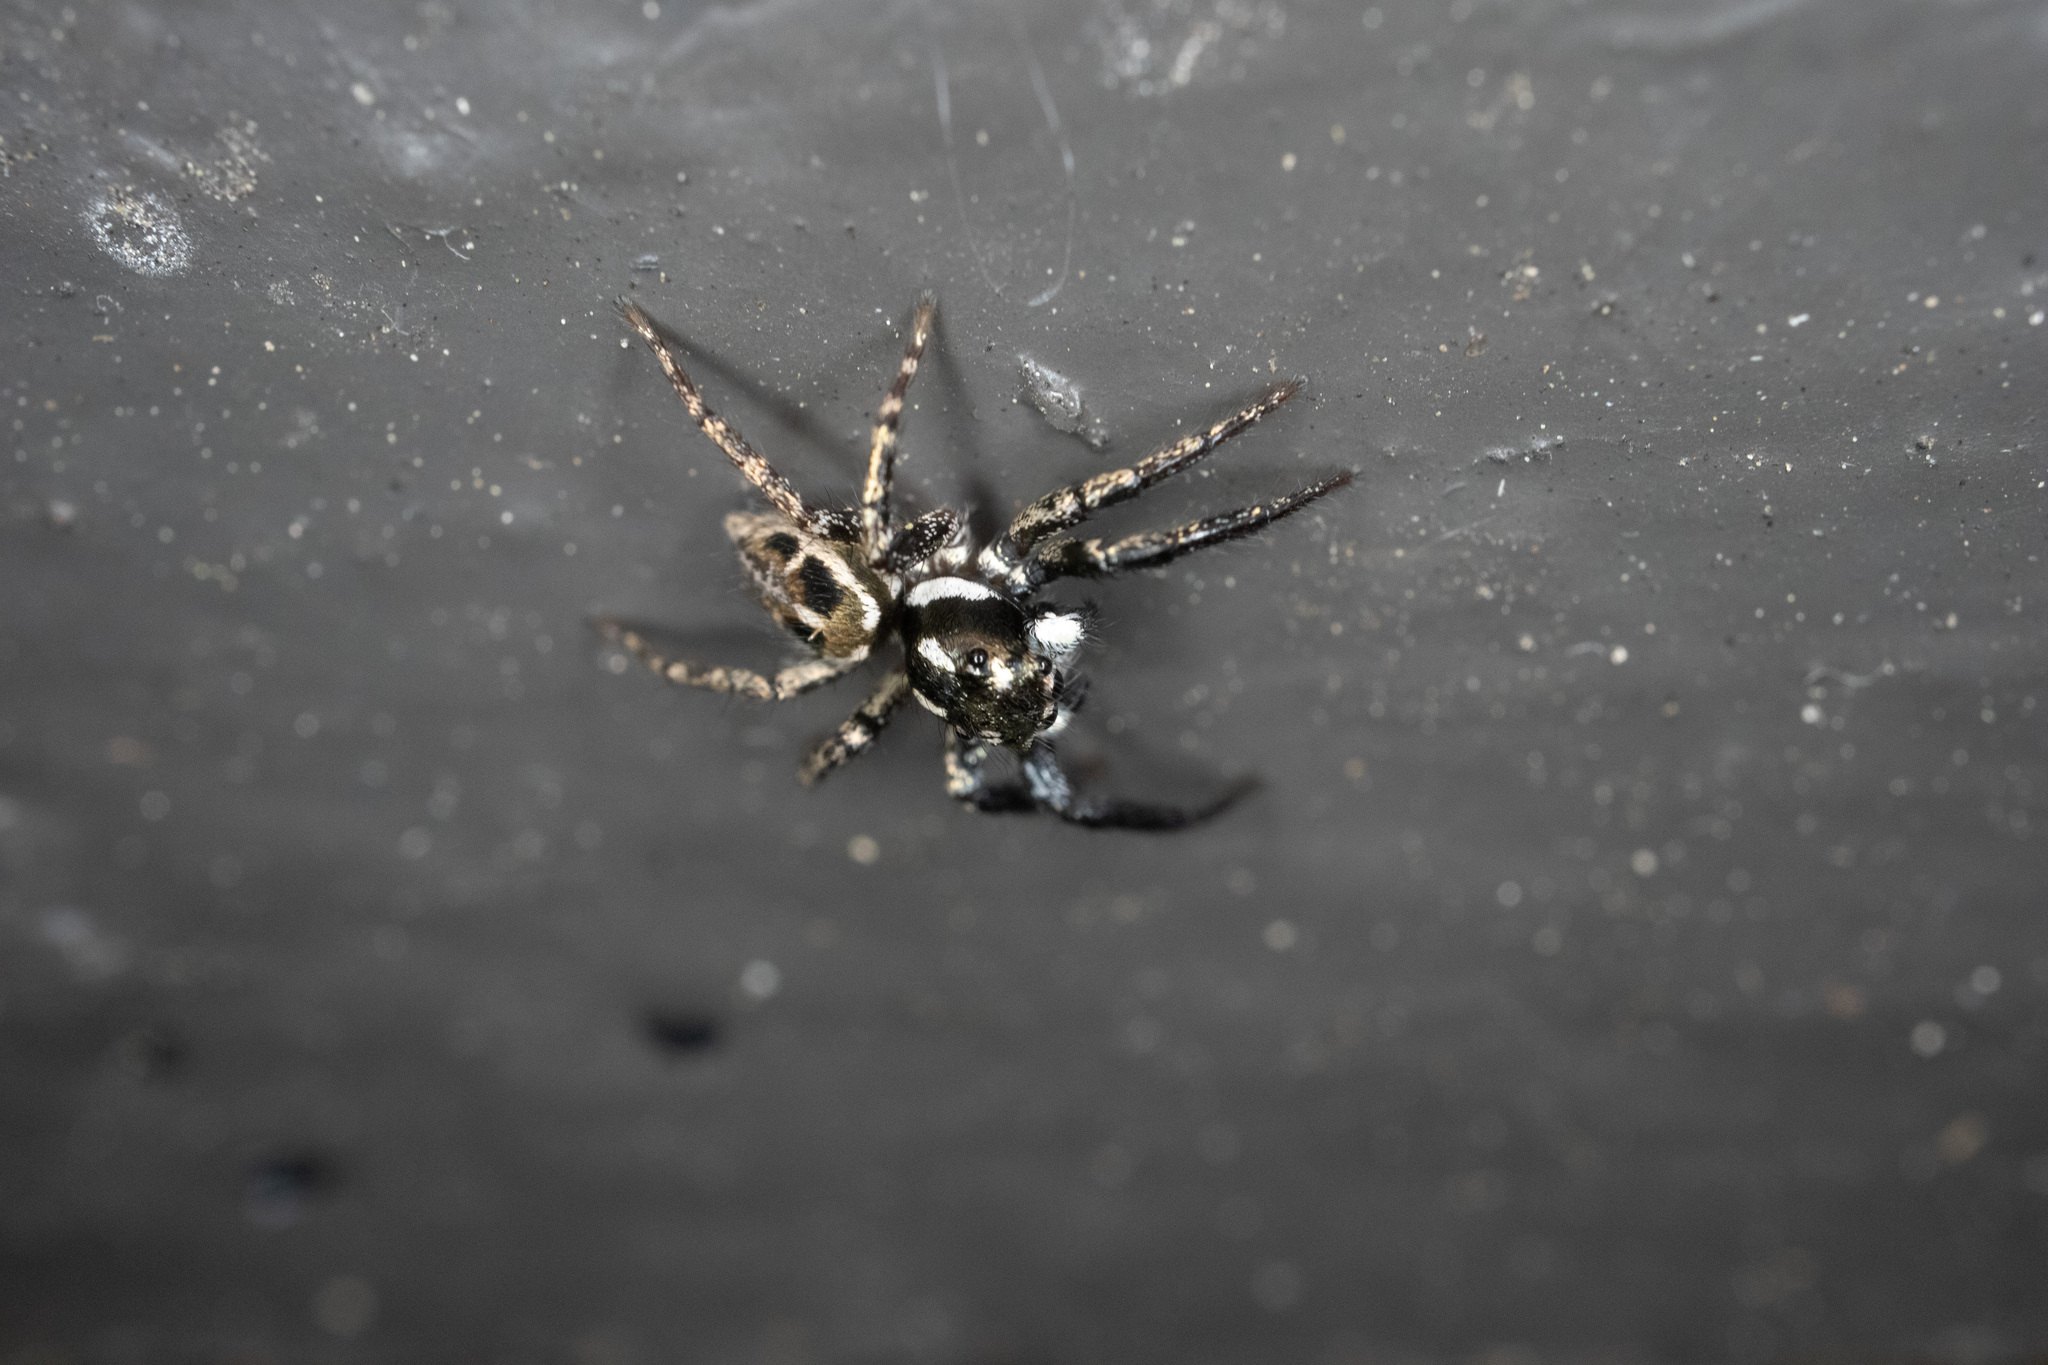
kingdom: Animalia
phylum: Arthropoda
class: Arachnida
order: Araneae
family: Salticidae
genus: Anasaitis
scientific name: Anasaitis canosa
